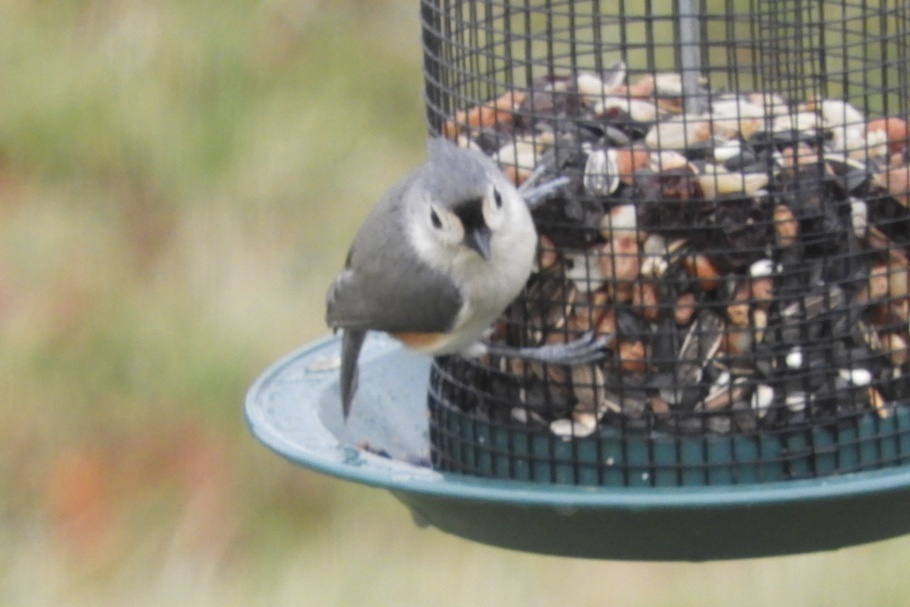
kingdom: Animalia
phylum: Chordata
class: Aves
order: Passeriformes
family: Paridae
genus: Baeolophus
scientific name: Baeolophus bicolor
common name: Tufted titmouse
